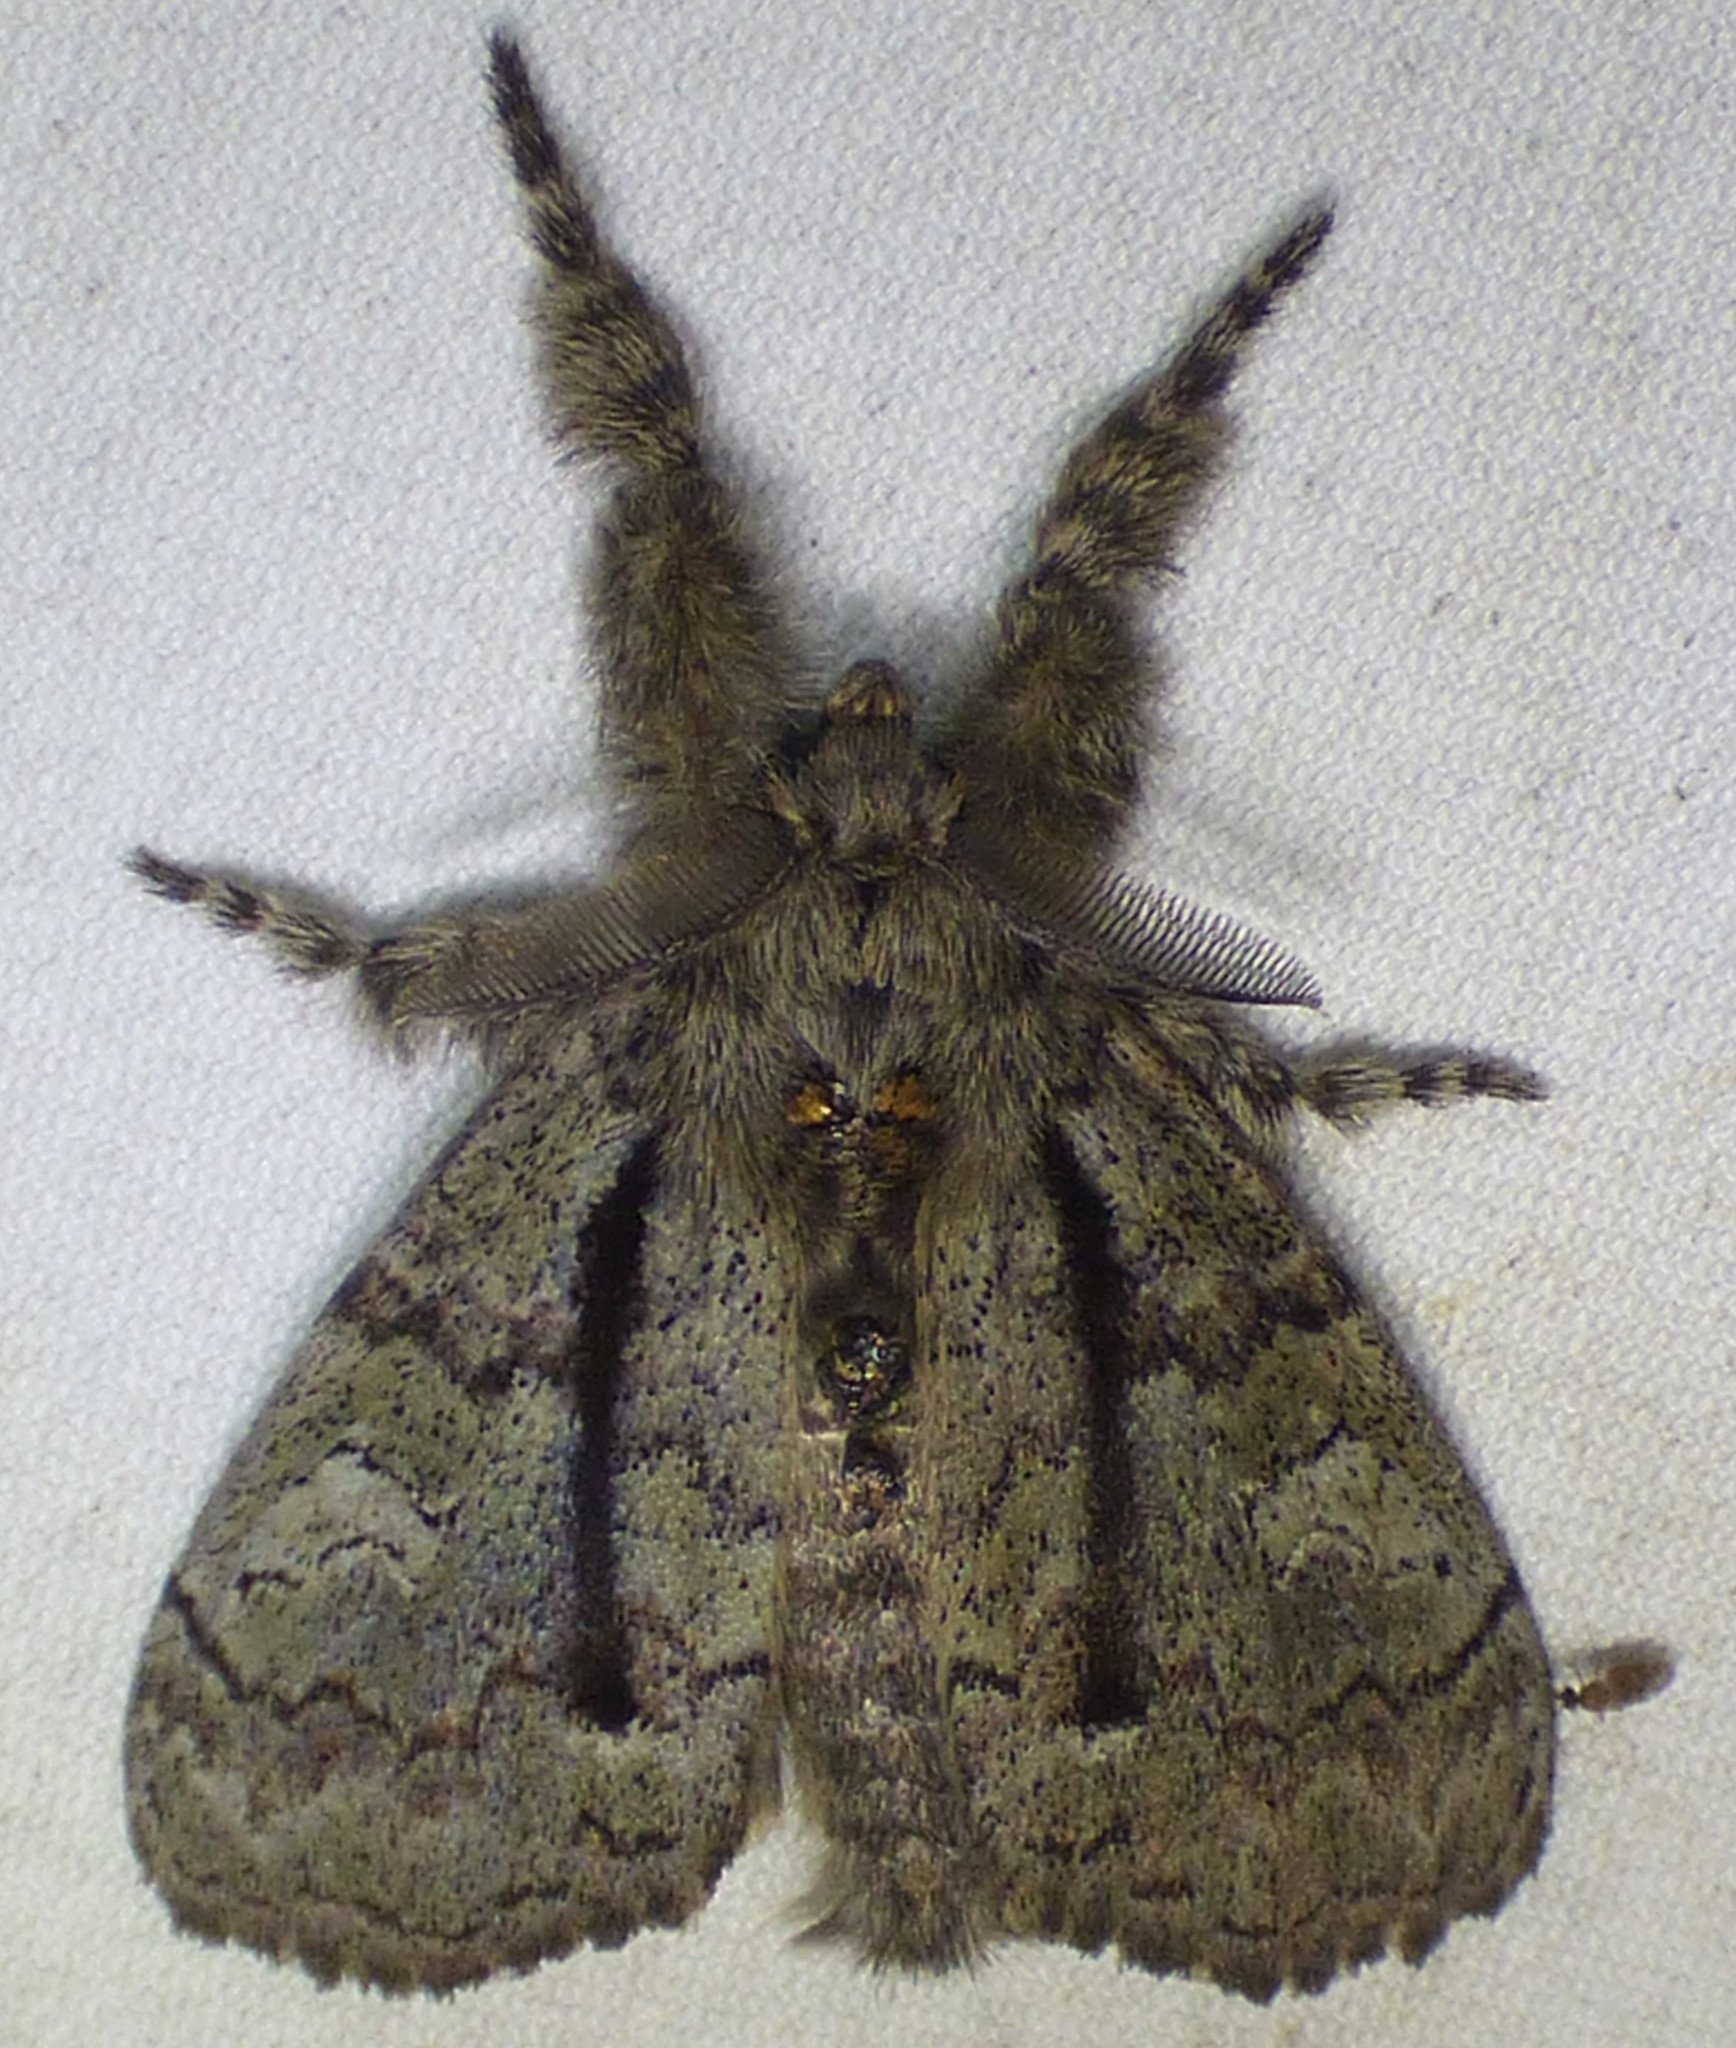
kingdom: Animalia
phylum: Arthropoda
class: Insecta
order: Lepidoptera
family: Erebidae
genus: Dasychira
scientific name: Dasychira tephra
